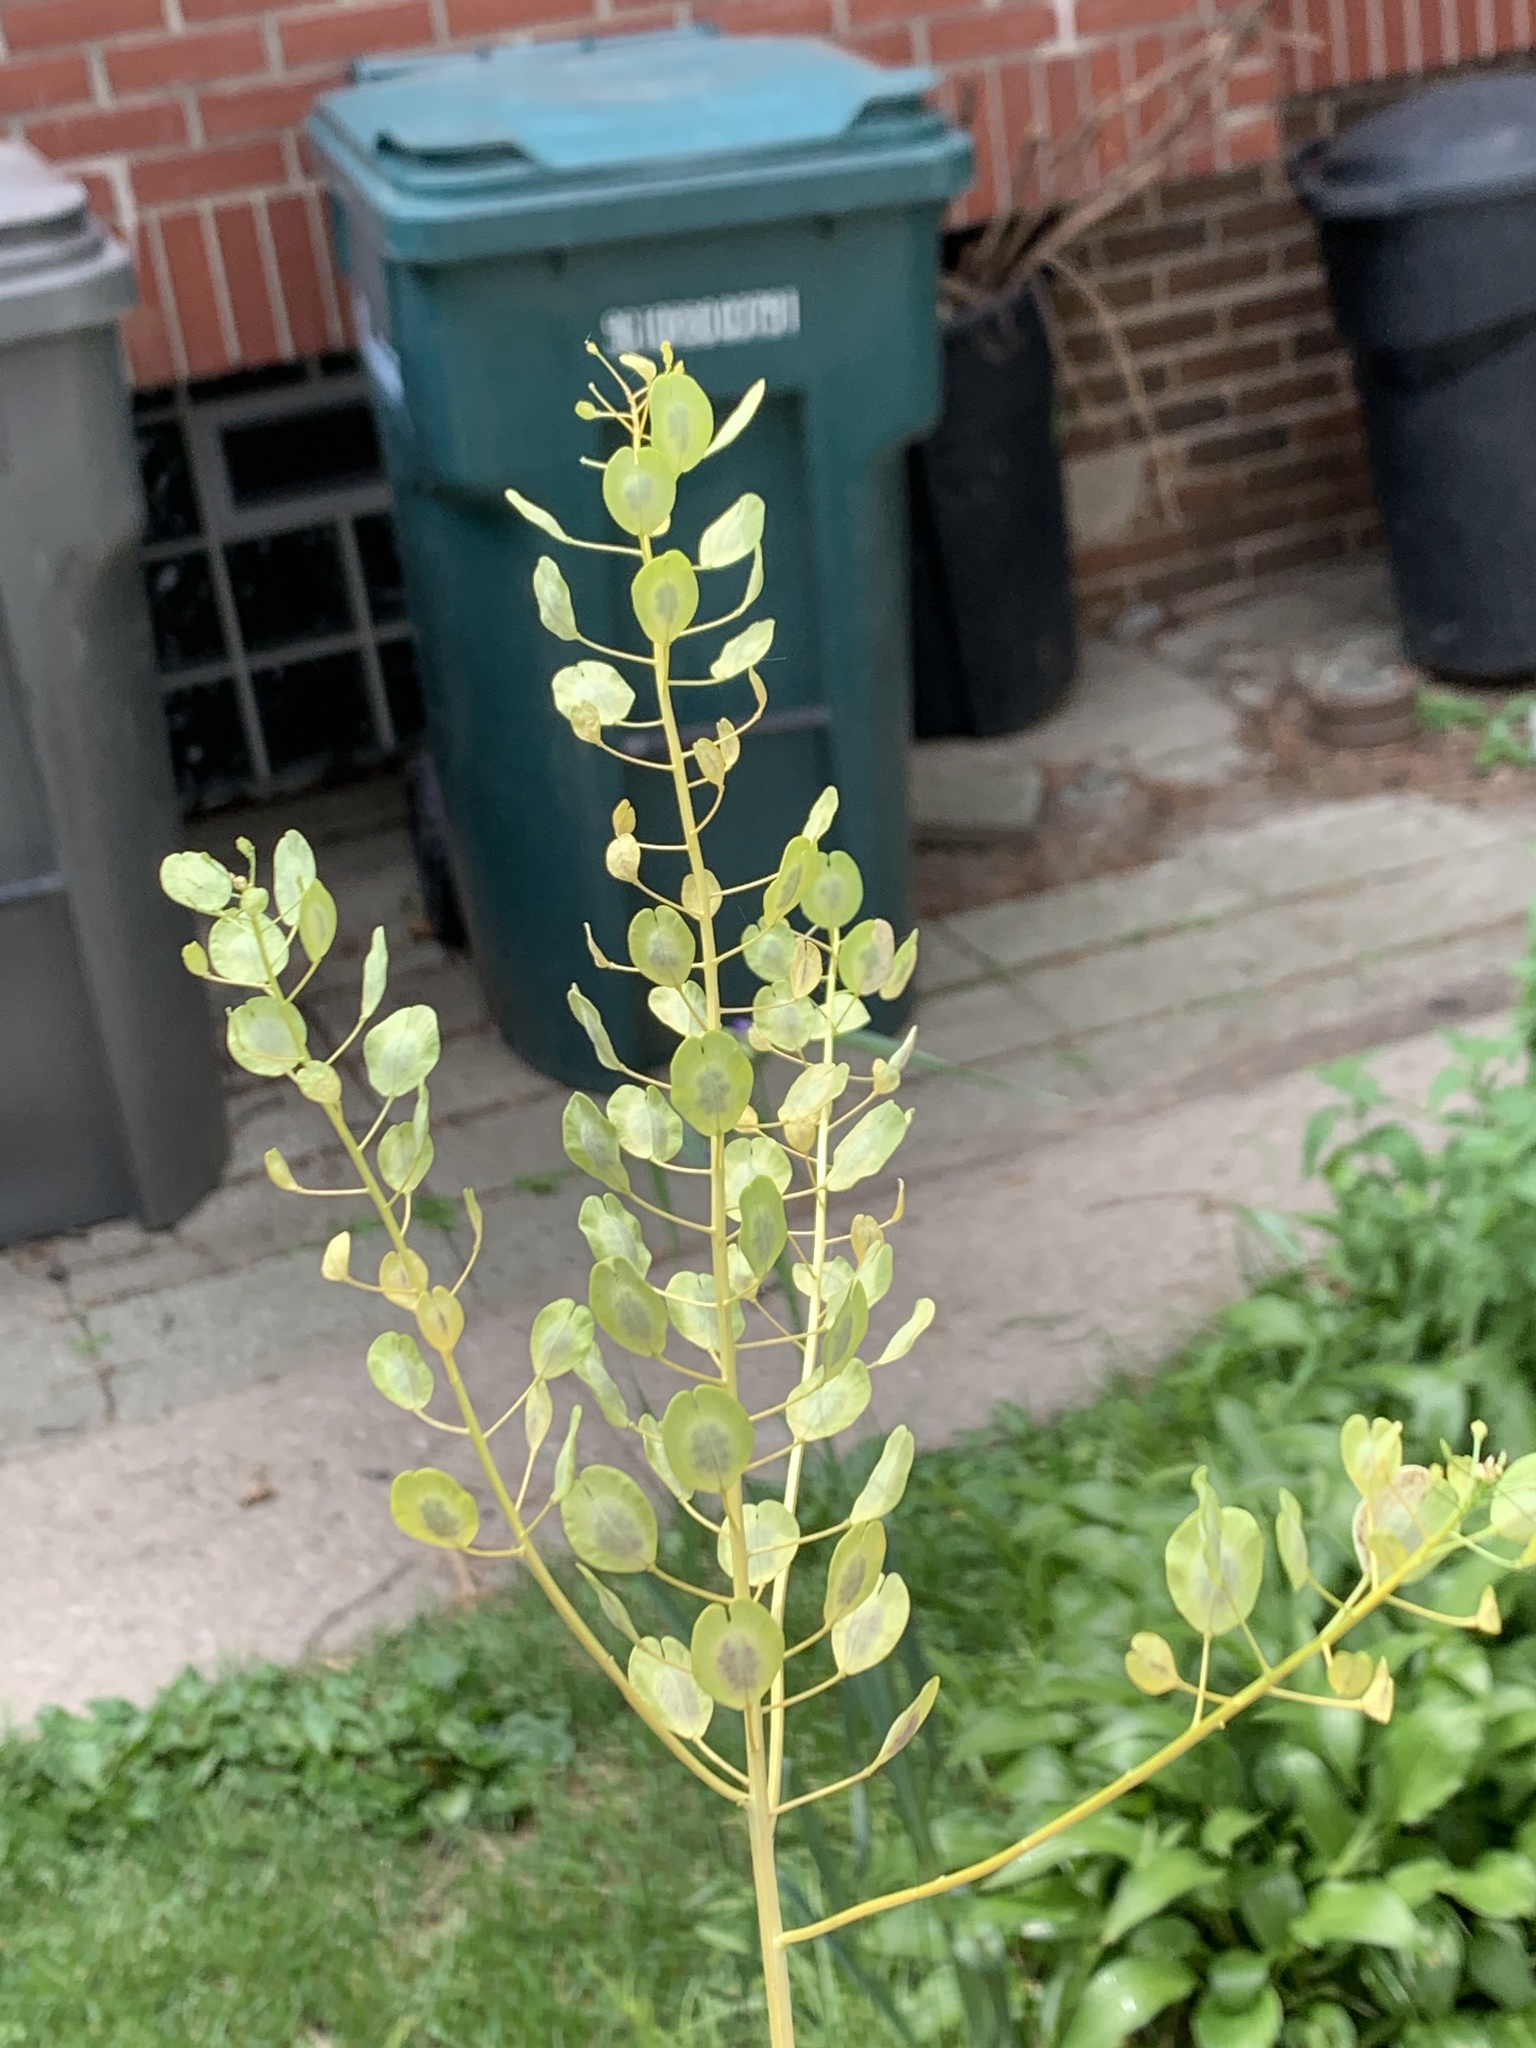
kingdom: Plantae
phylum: Tracheophyta
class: Magnoliopsida
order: Brassicales
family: Brassicaceae
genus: Thlaspi
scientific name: Thlaspi arvense
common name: Field pennycress
